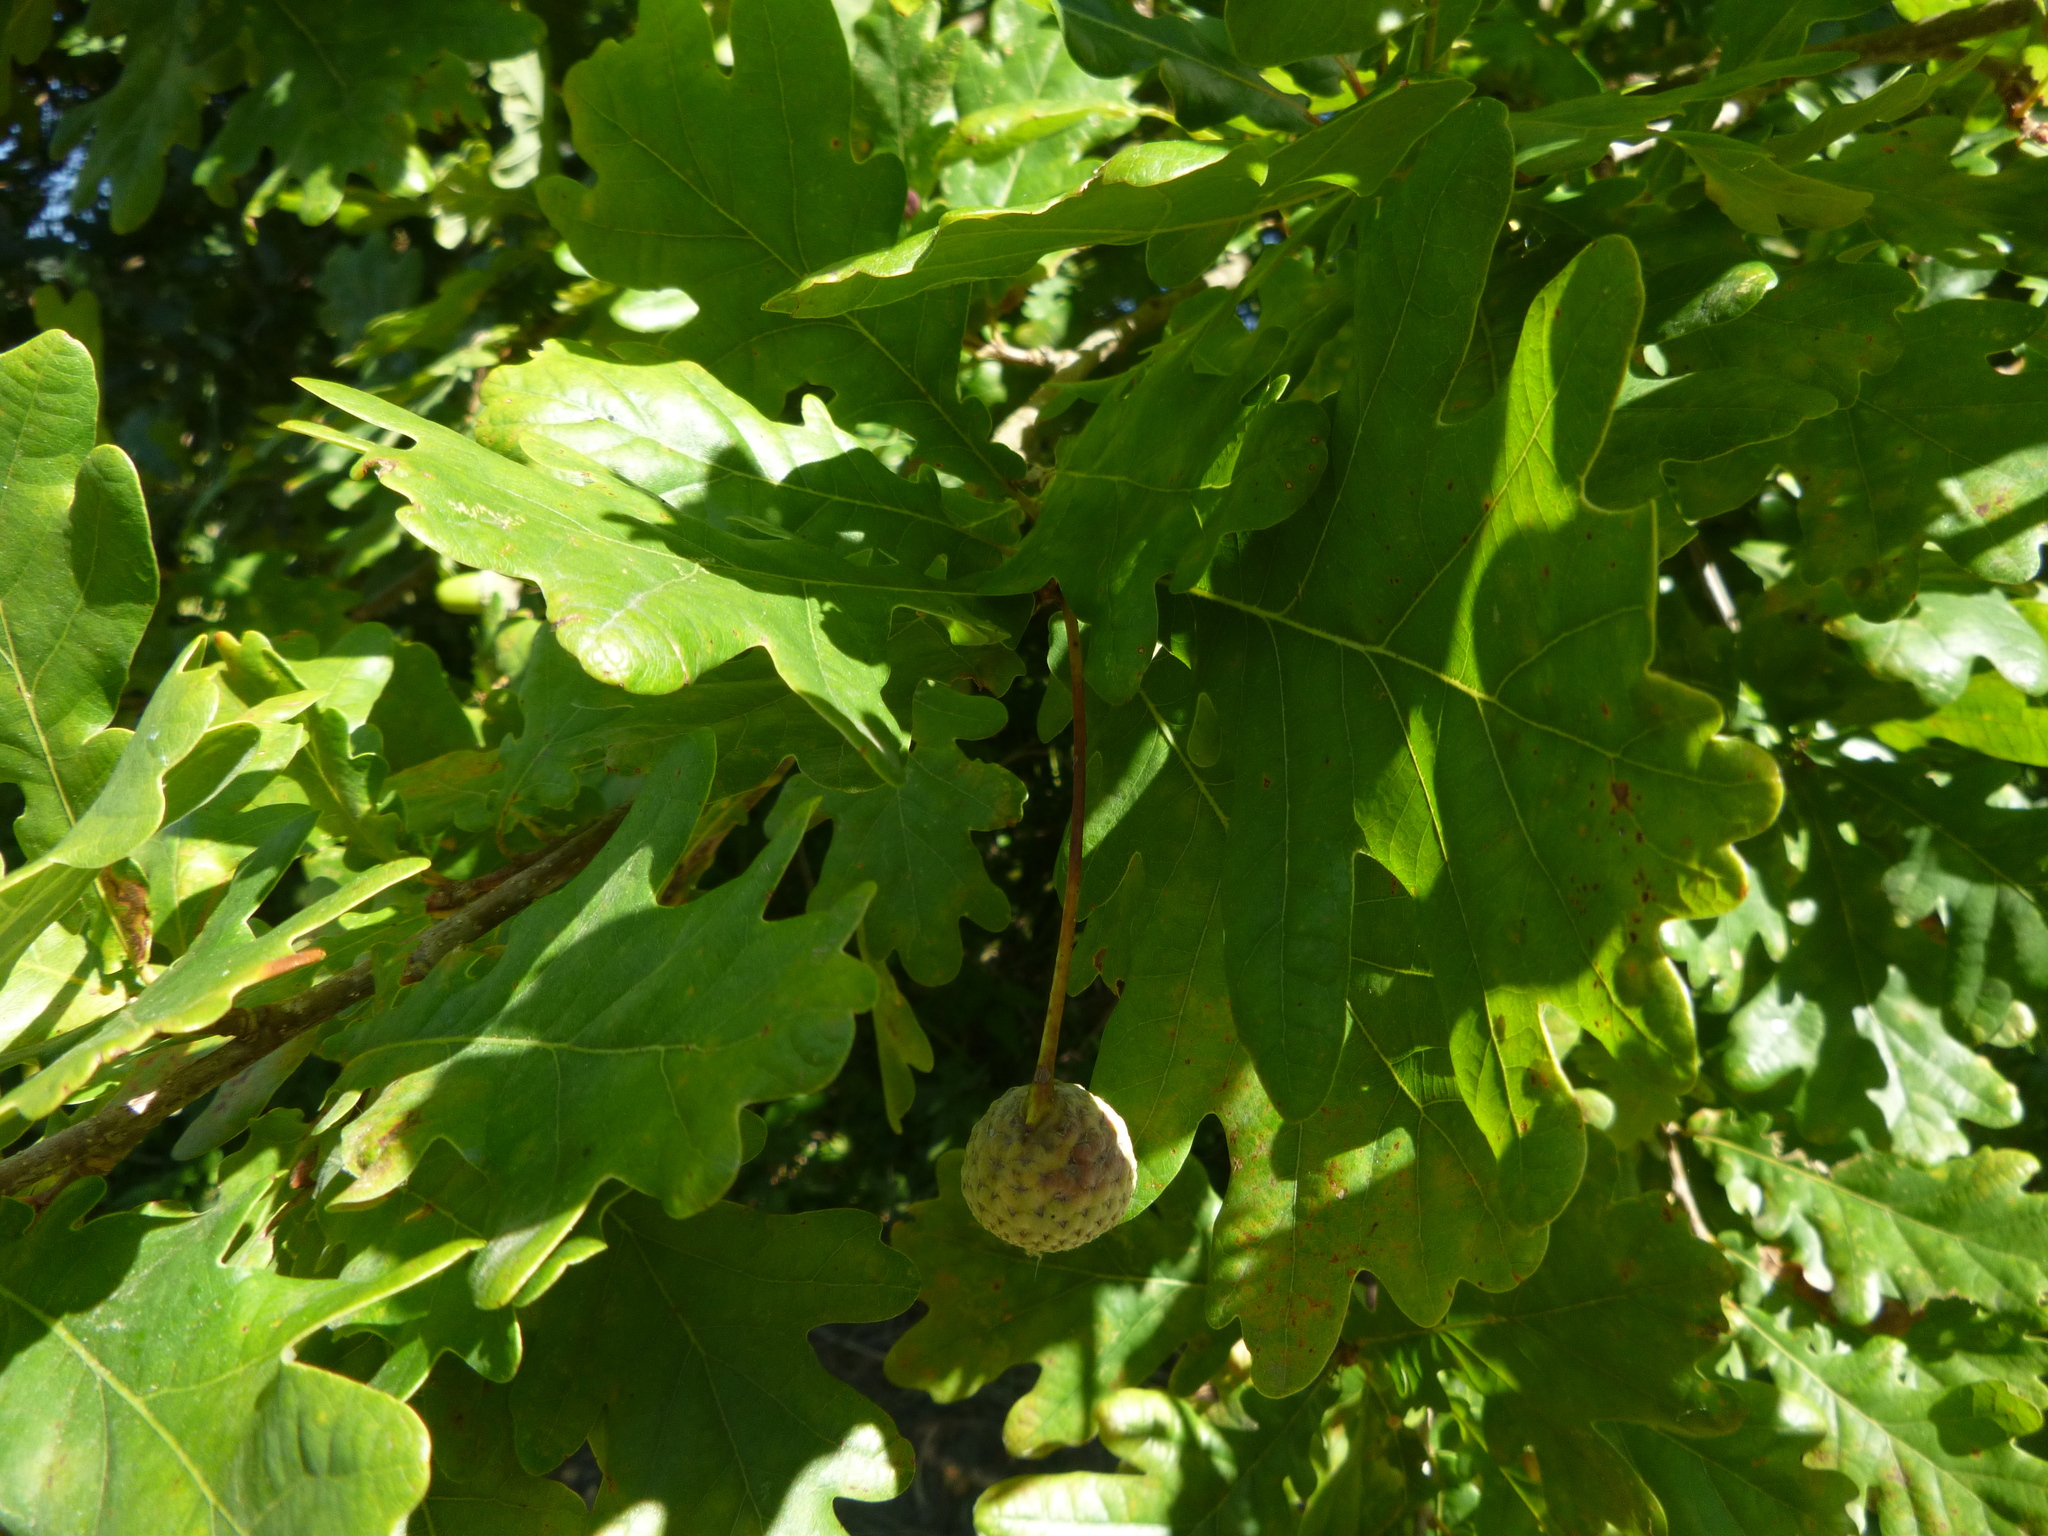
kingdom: Plantae
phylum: Tracheophyta
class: Magnoliopsida
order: Fagales
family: Fagaceae
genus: Quercus
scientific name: Quercus robur
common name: Pedunculate oak
